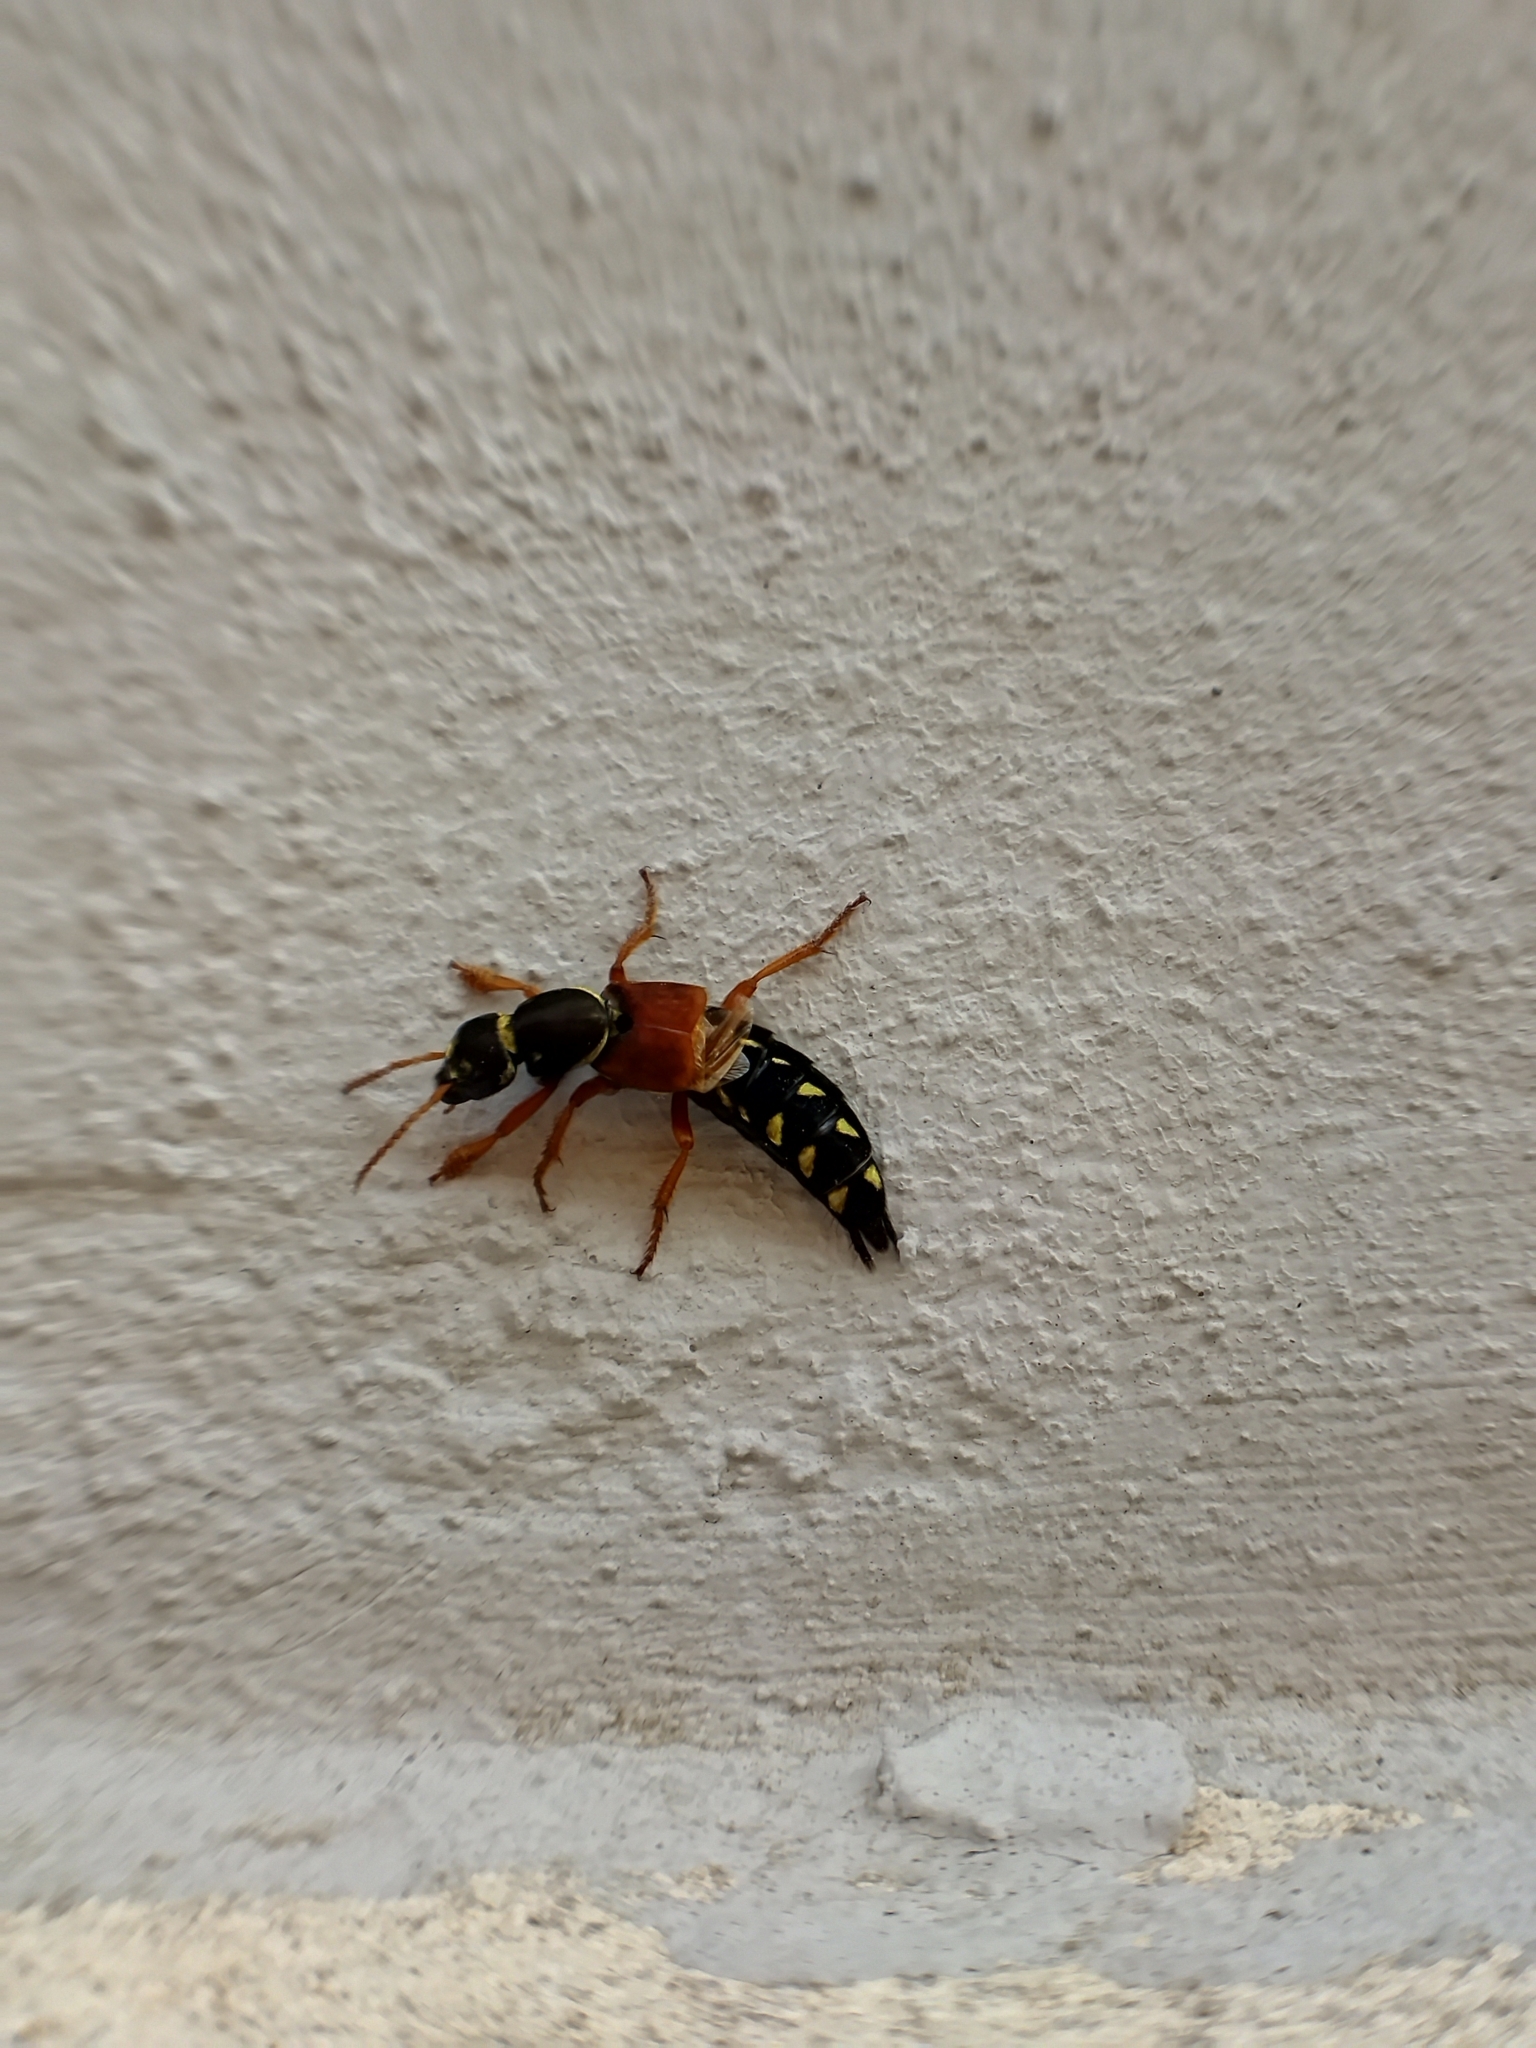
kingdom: Animalia
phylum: Arthropoda
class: Insecta
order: Coleoptera
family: Staphylinidae
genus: Staphylinus
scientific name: Staphylinus caesareus
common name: Staph beetle
